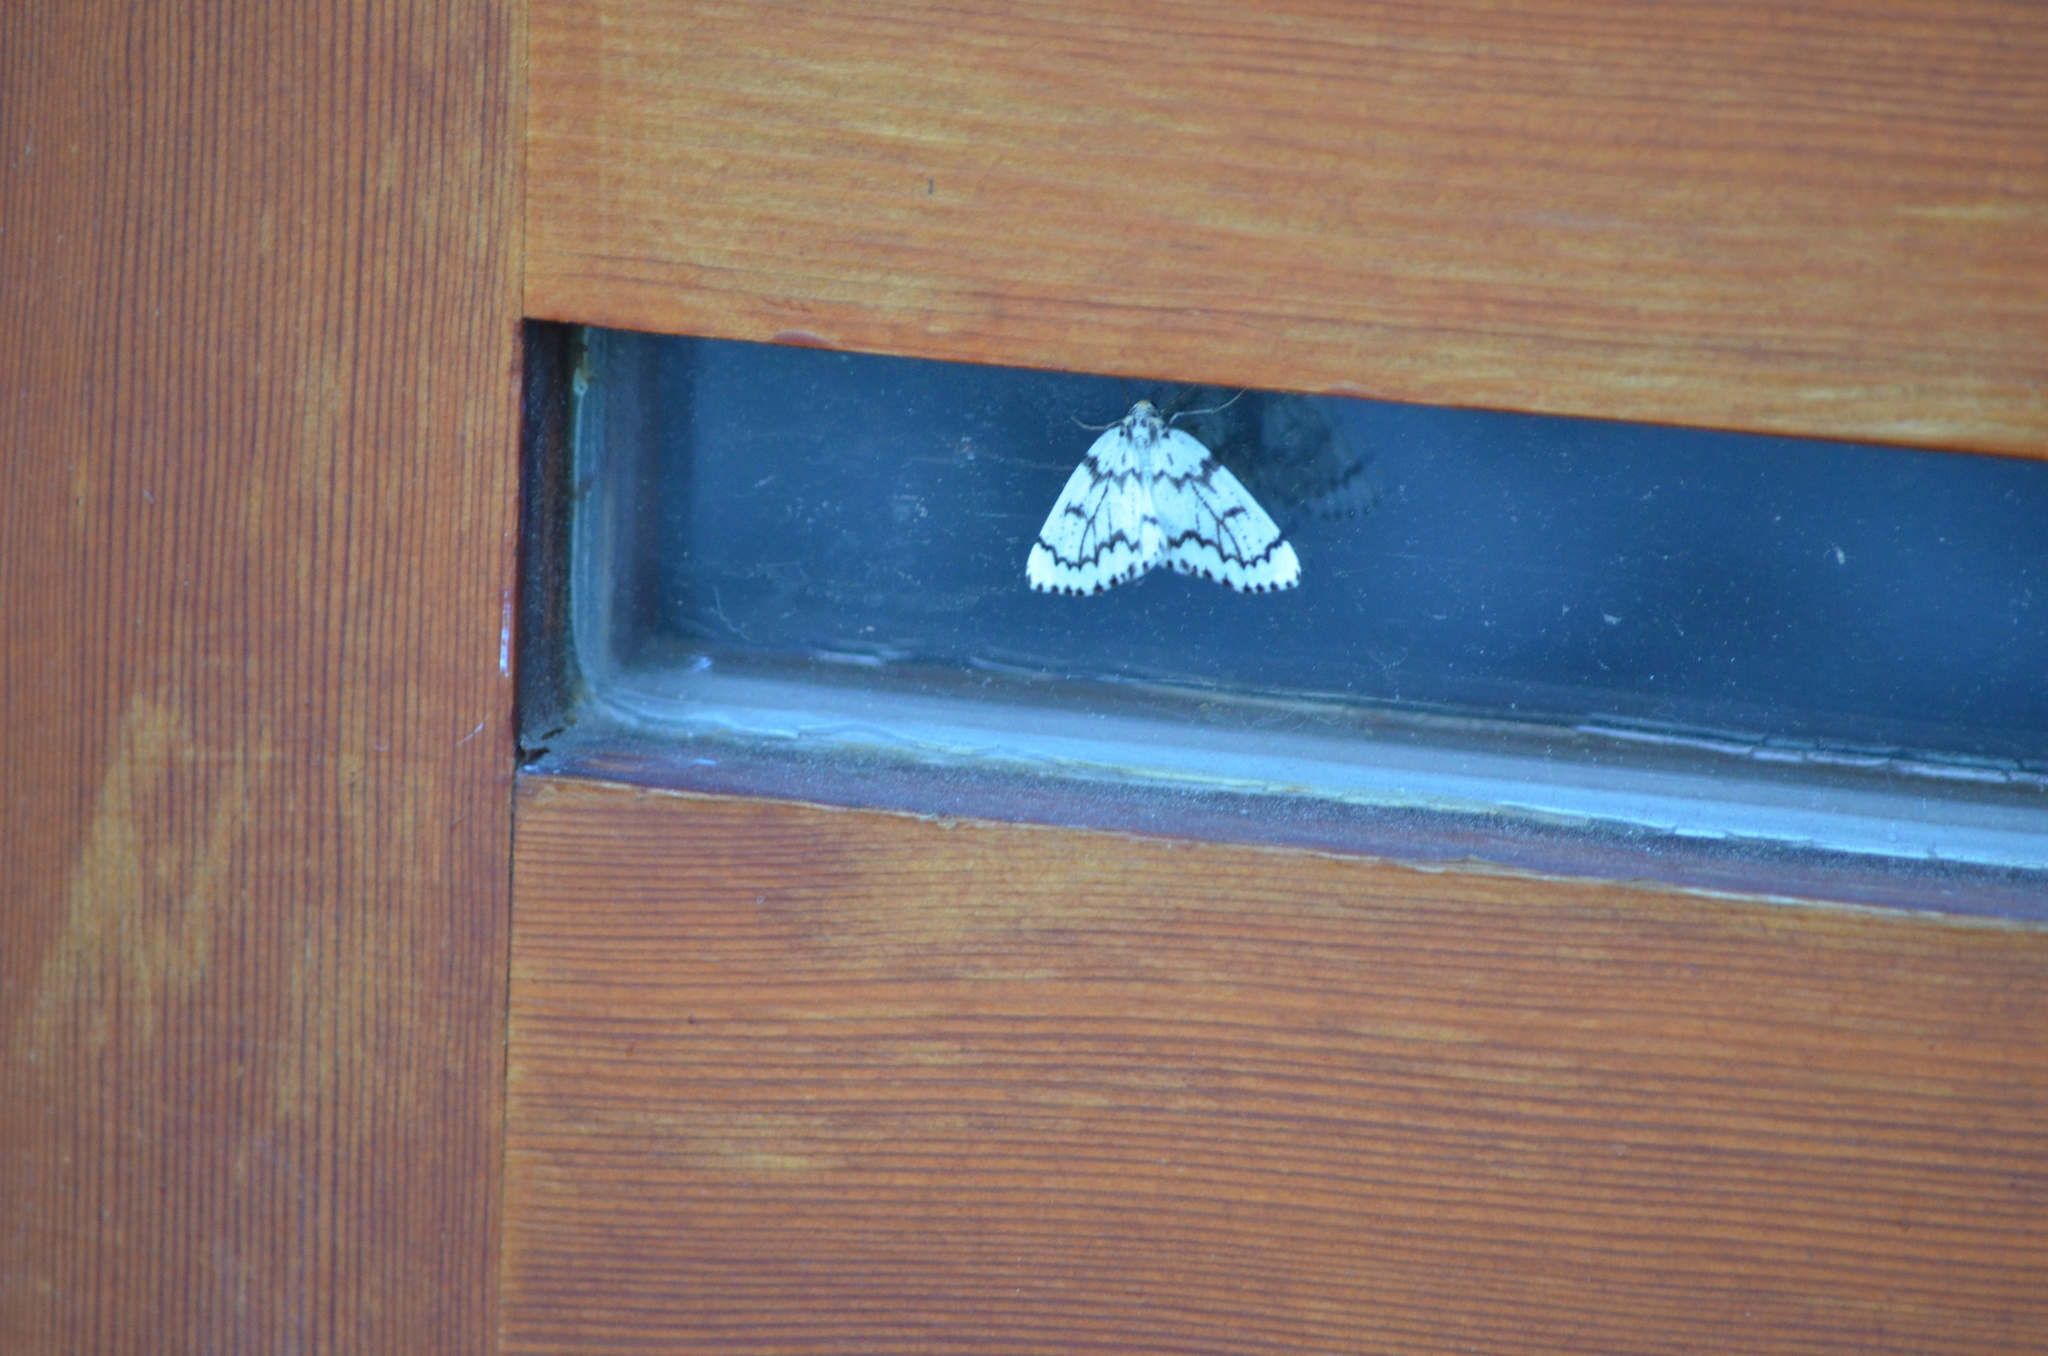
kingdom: Animalia
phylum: Arthropoda
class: Insecta
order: Lepidoptera
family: Geometridae
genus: Nepytia
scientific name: Nepytia phantasmaria
